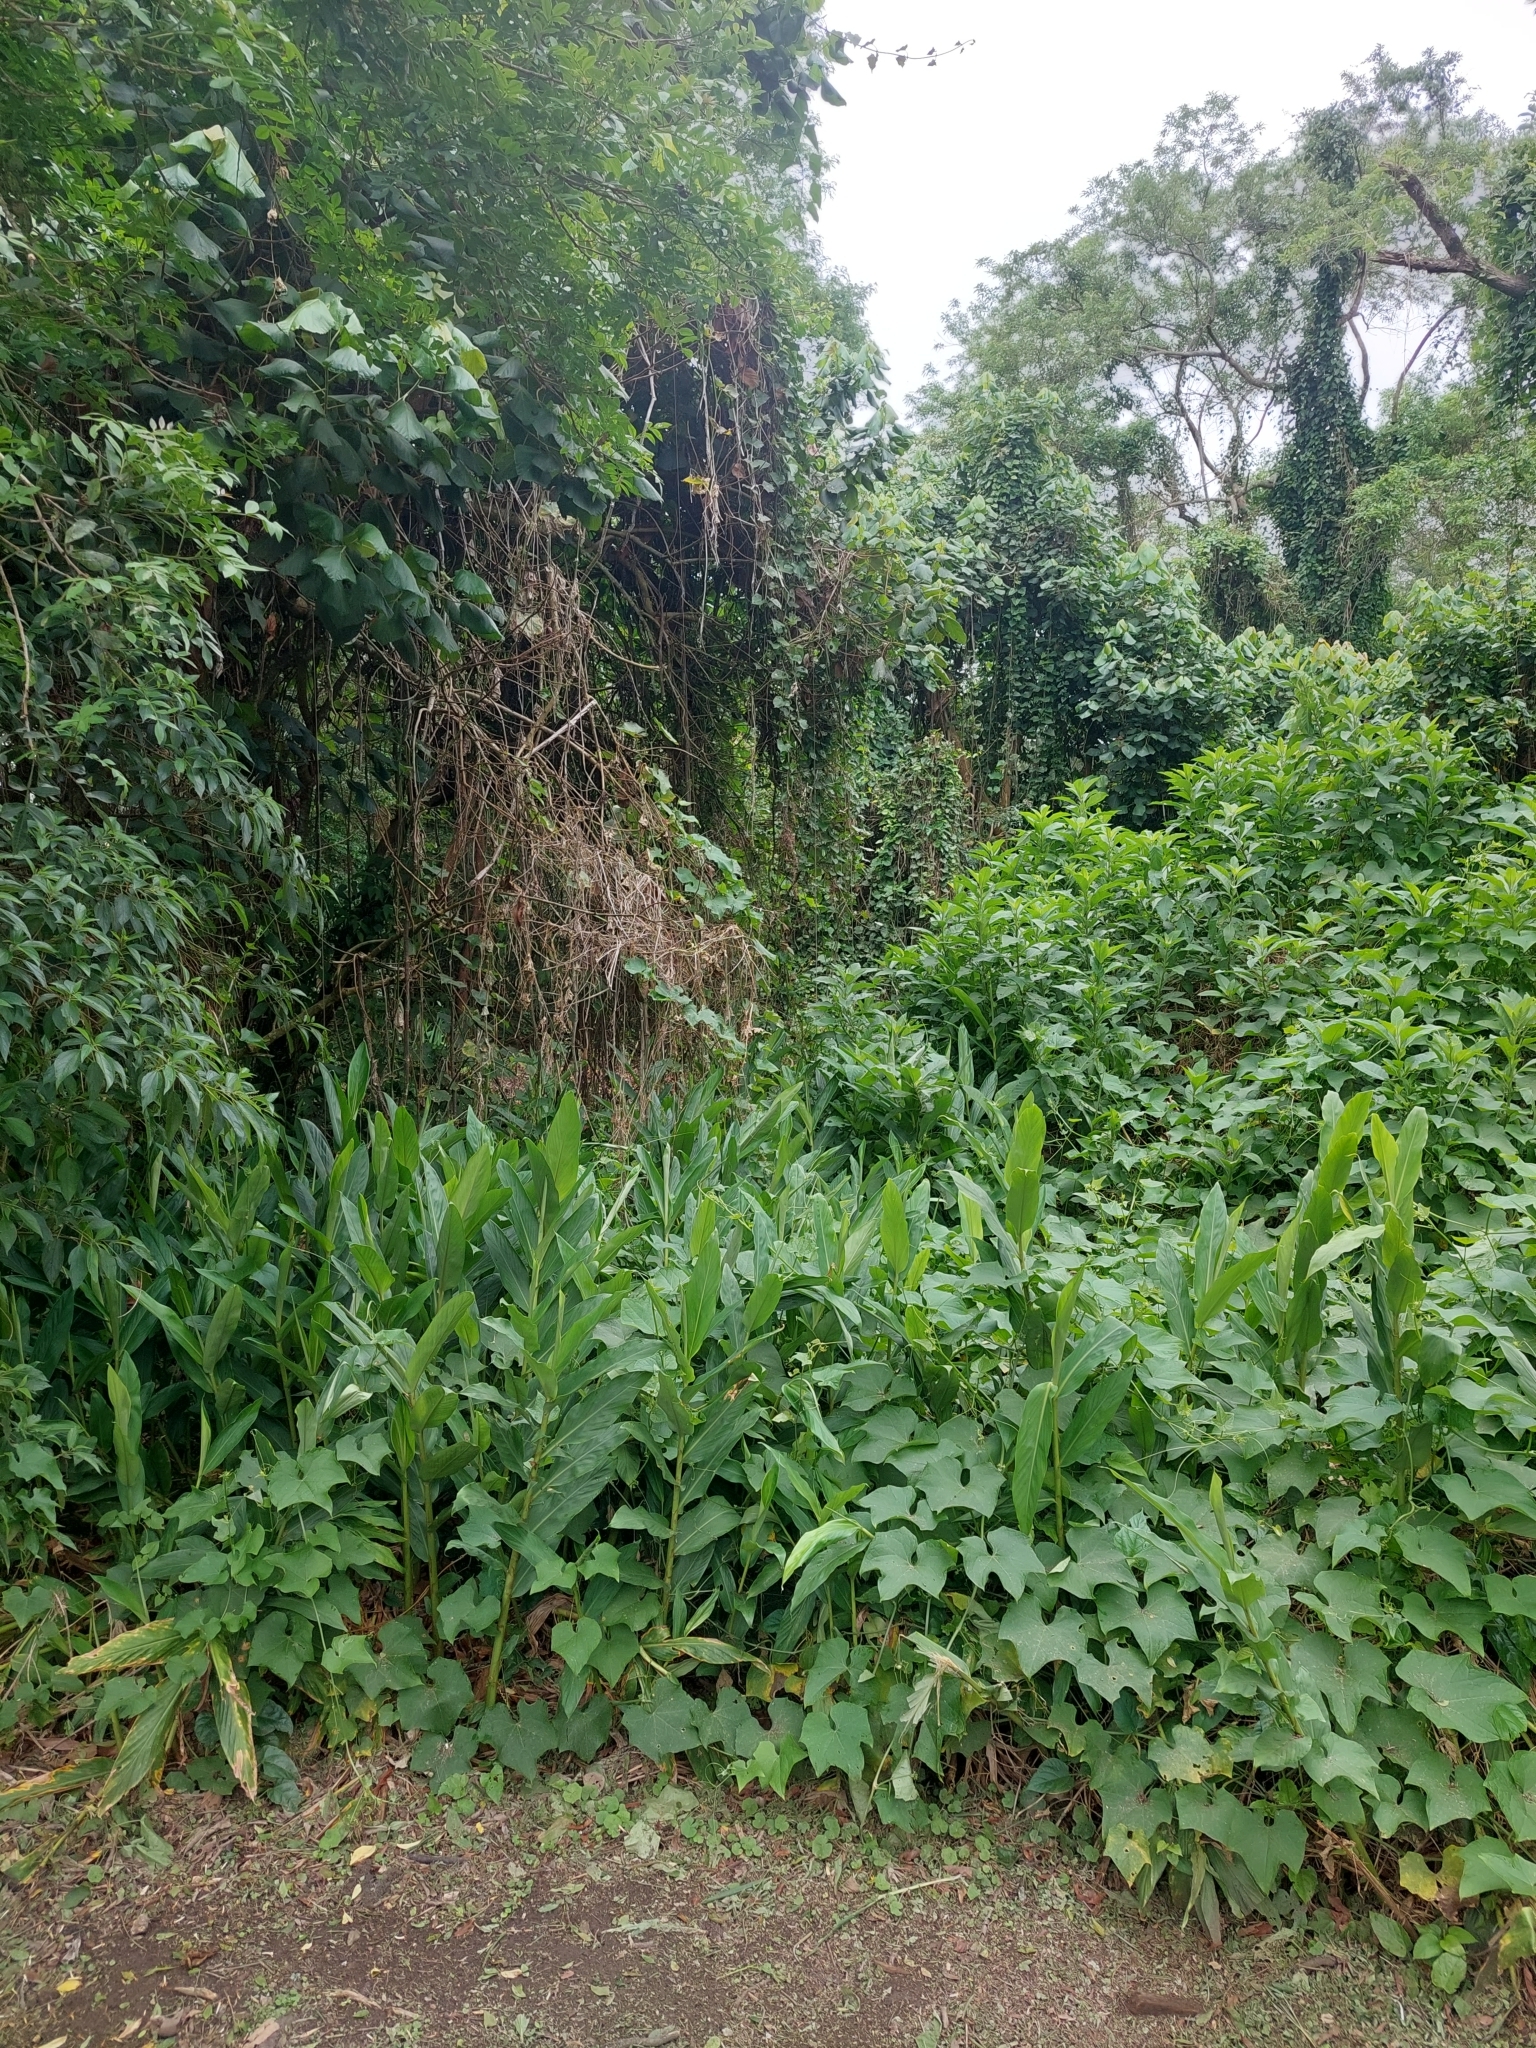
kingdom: Plantae
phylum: Tracheophyta
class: Liliopsida
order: Zingiberales
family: Zingiberaceae
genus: Hedychium
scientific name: Hedychium coronarium
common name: White garland-lily
